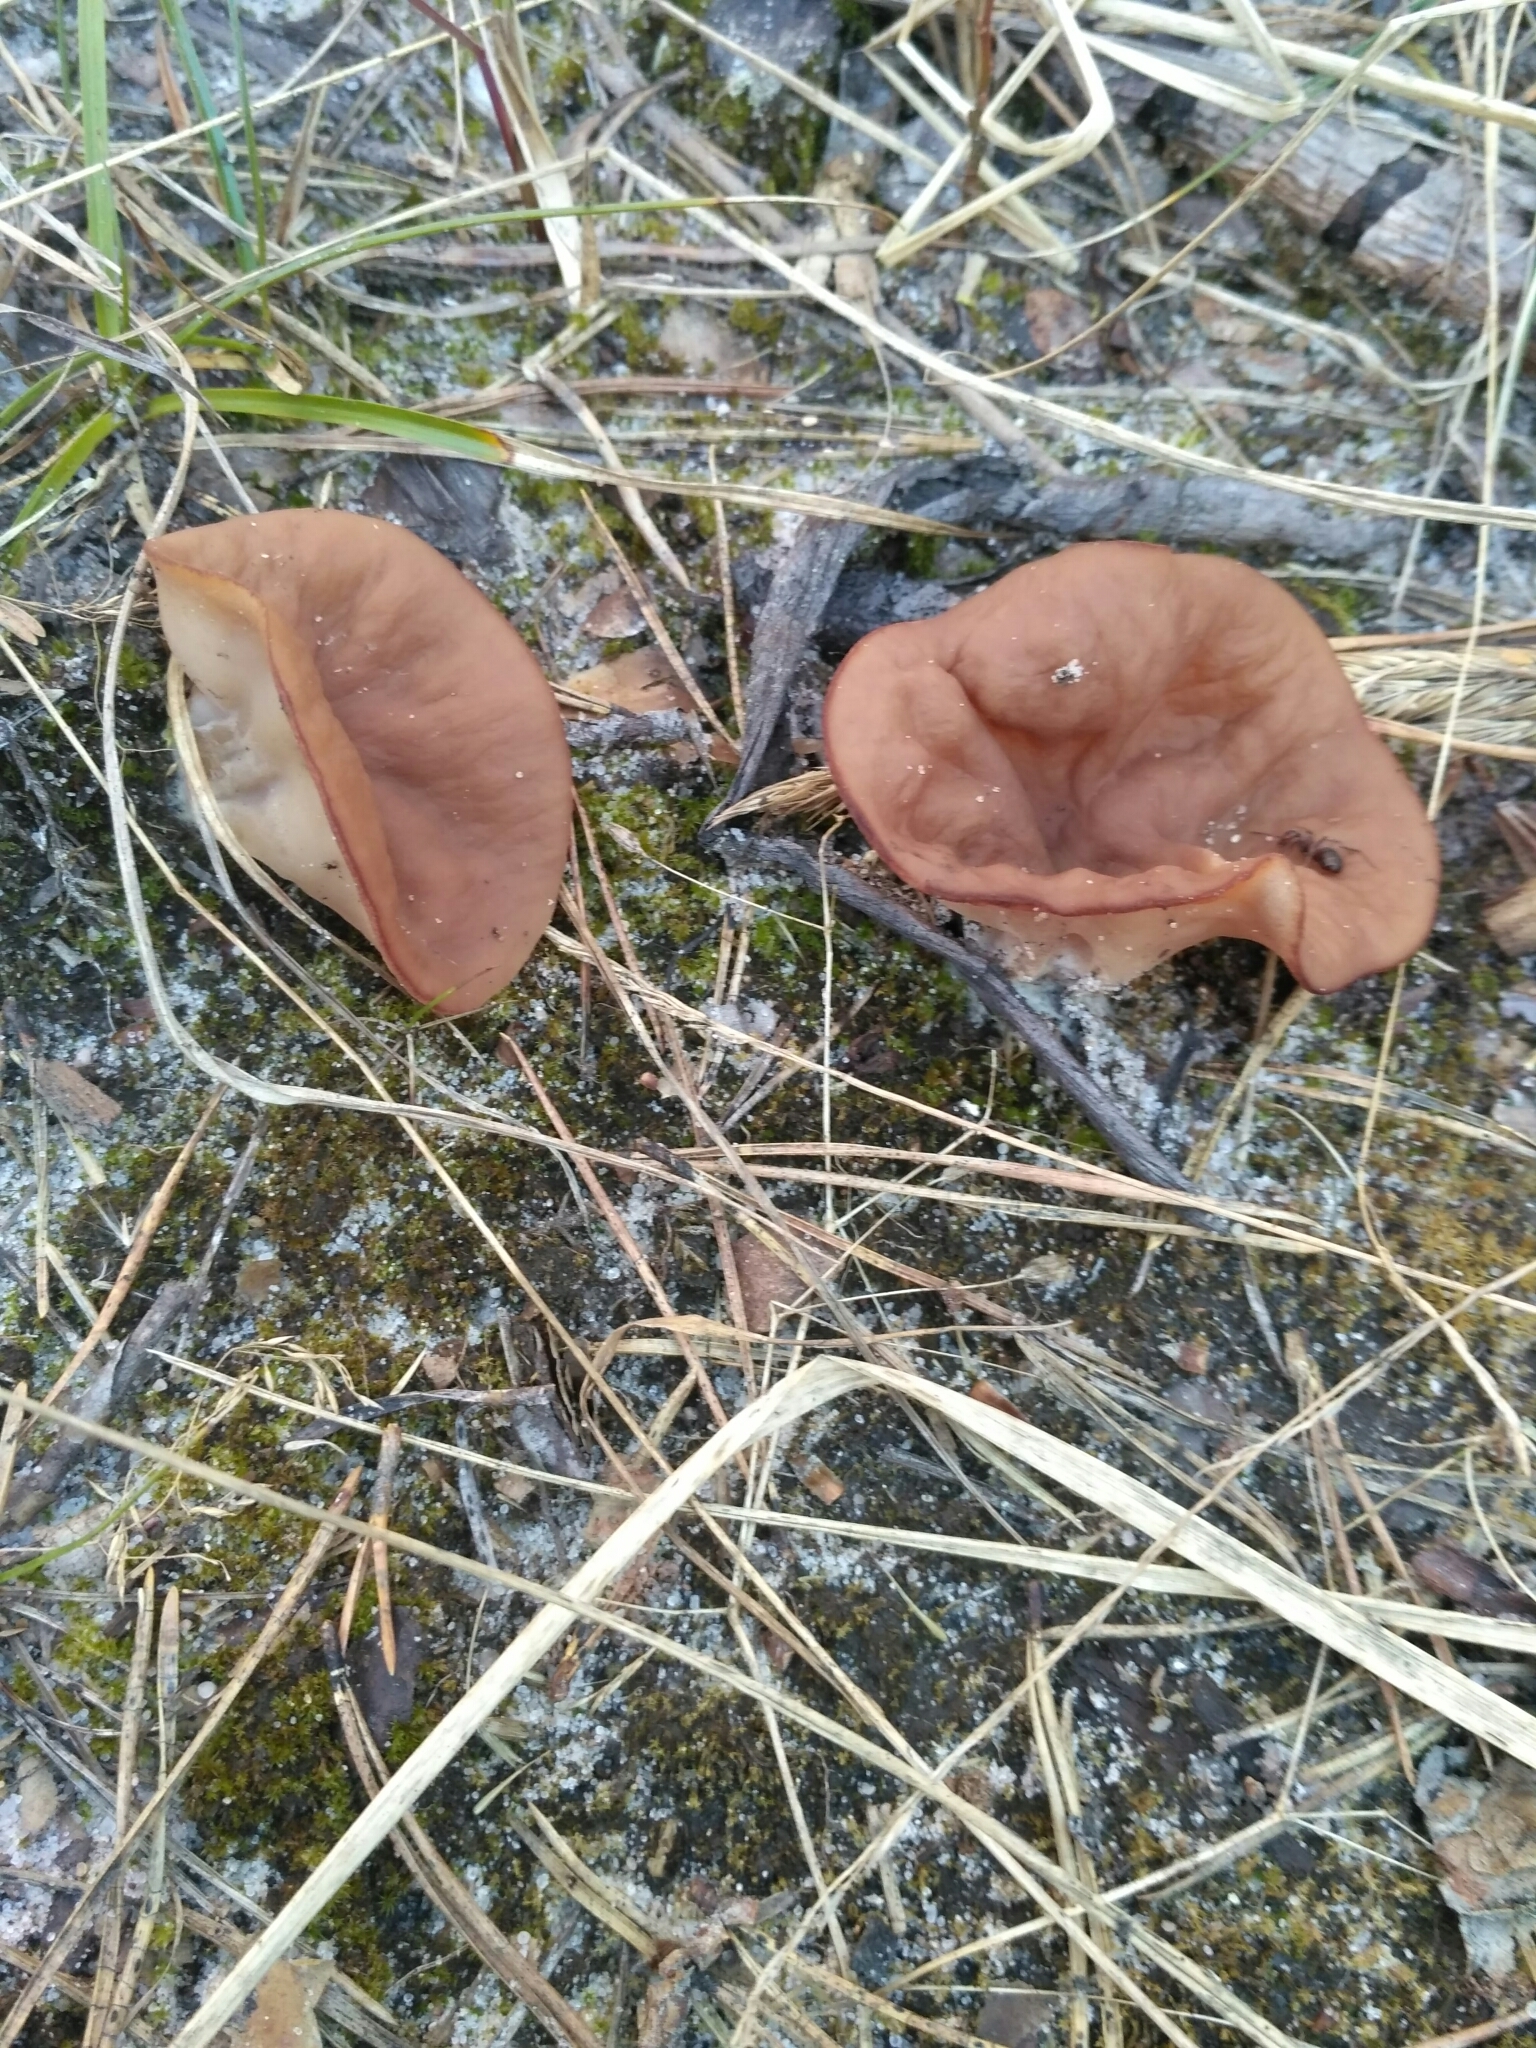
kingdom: Fungi
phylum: Ascomycota
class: Pezizomycetes
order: Pezizales
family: Discinaceae
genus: Discina
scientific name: Discina ancilis
